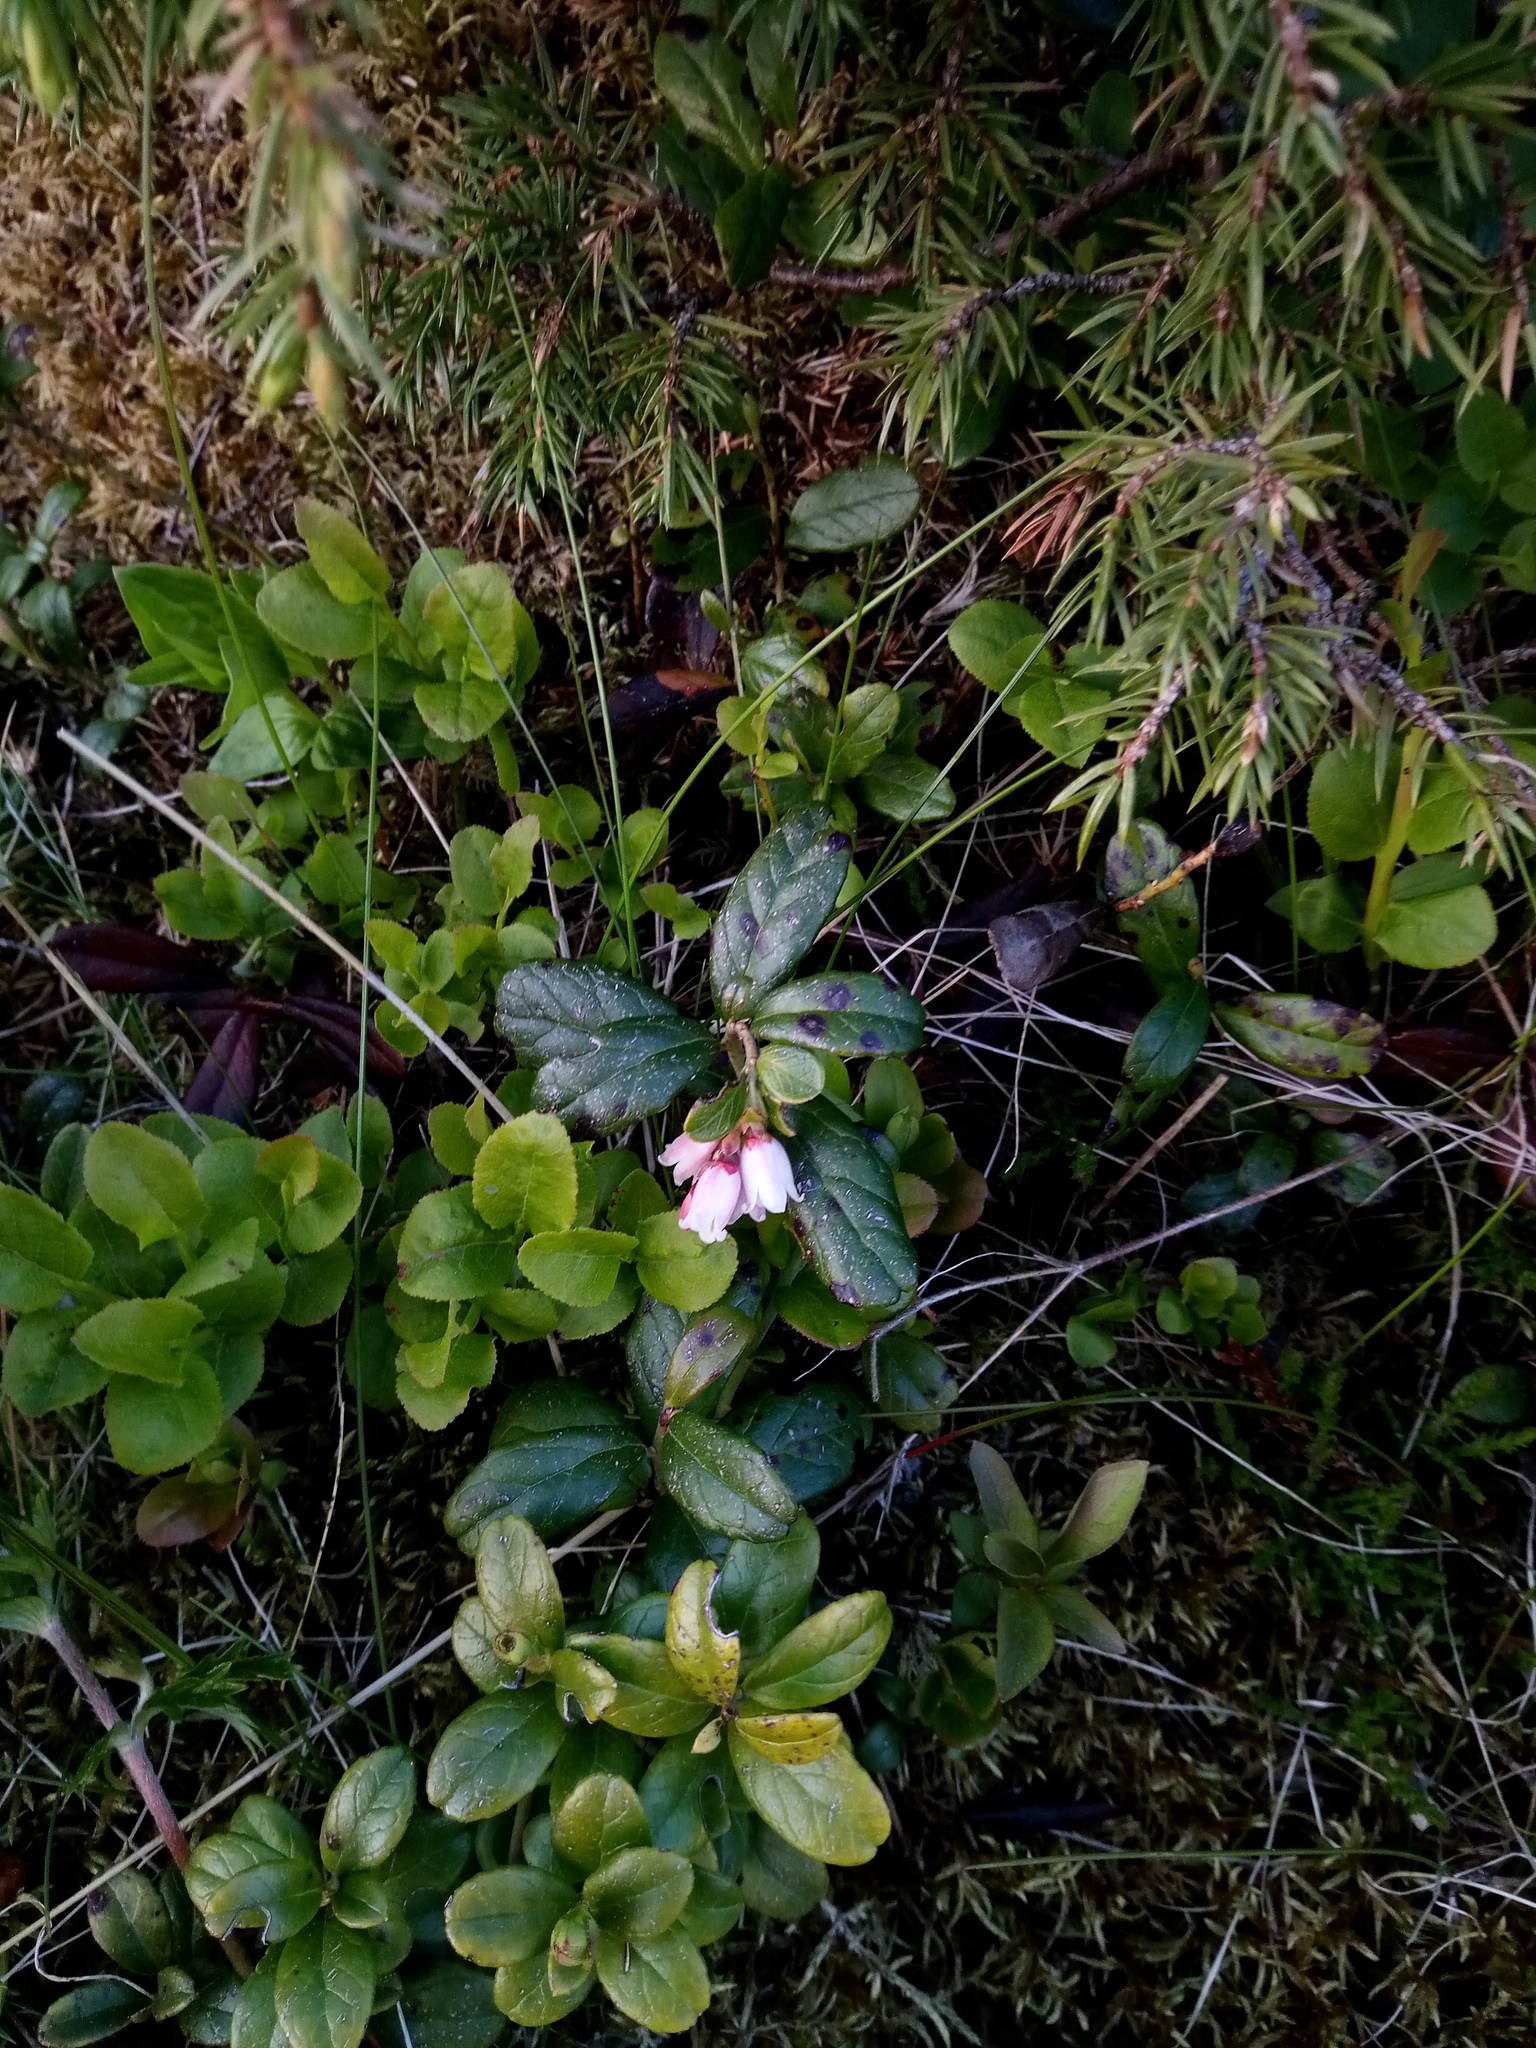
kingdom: Plantae
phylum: Tracheophyta
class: Magnoliopsida
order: Ericales
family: Ericaceae
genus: Vaccinium
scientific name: Vaccinium vitis-idaea
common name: Cowberry
